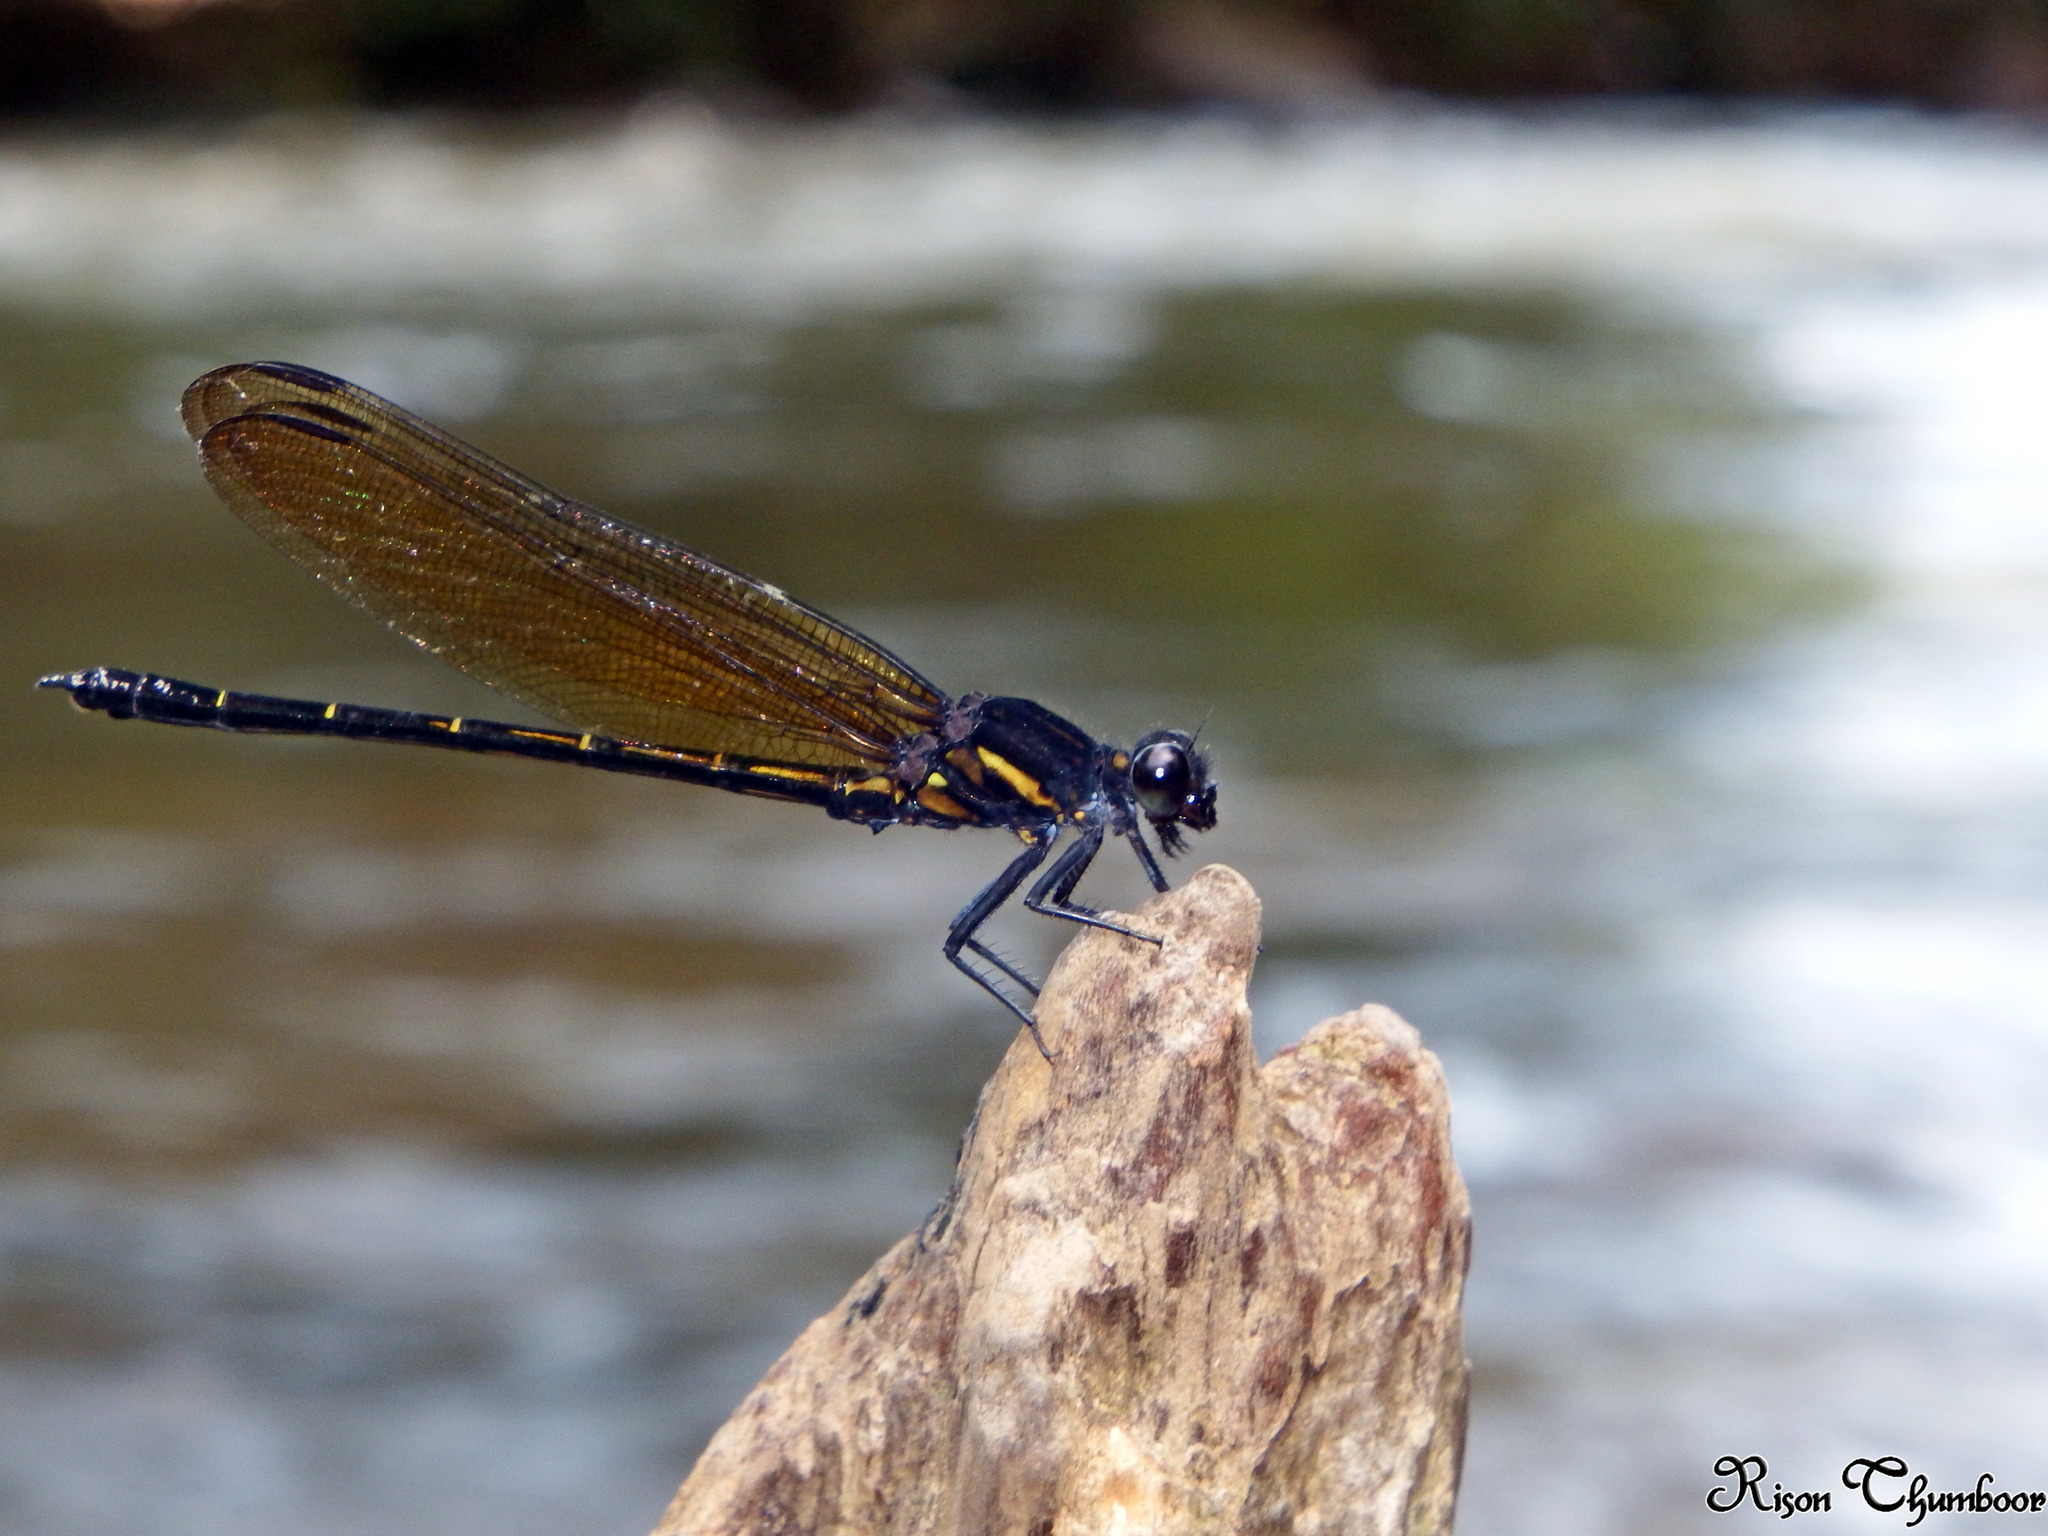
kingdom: Animalia
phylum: Arthropoda
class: Insecta
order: Odonata
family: Euphaeidae
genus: Dysphaea
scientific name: Dysphaea ethela
